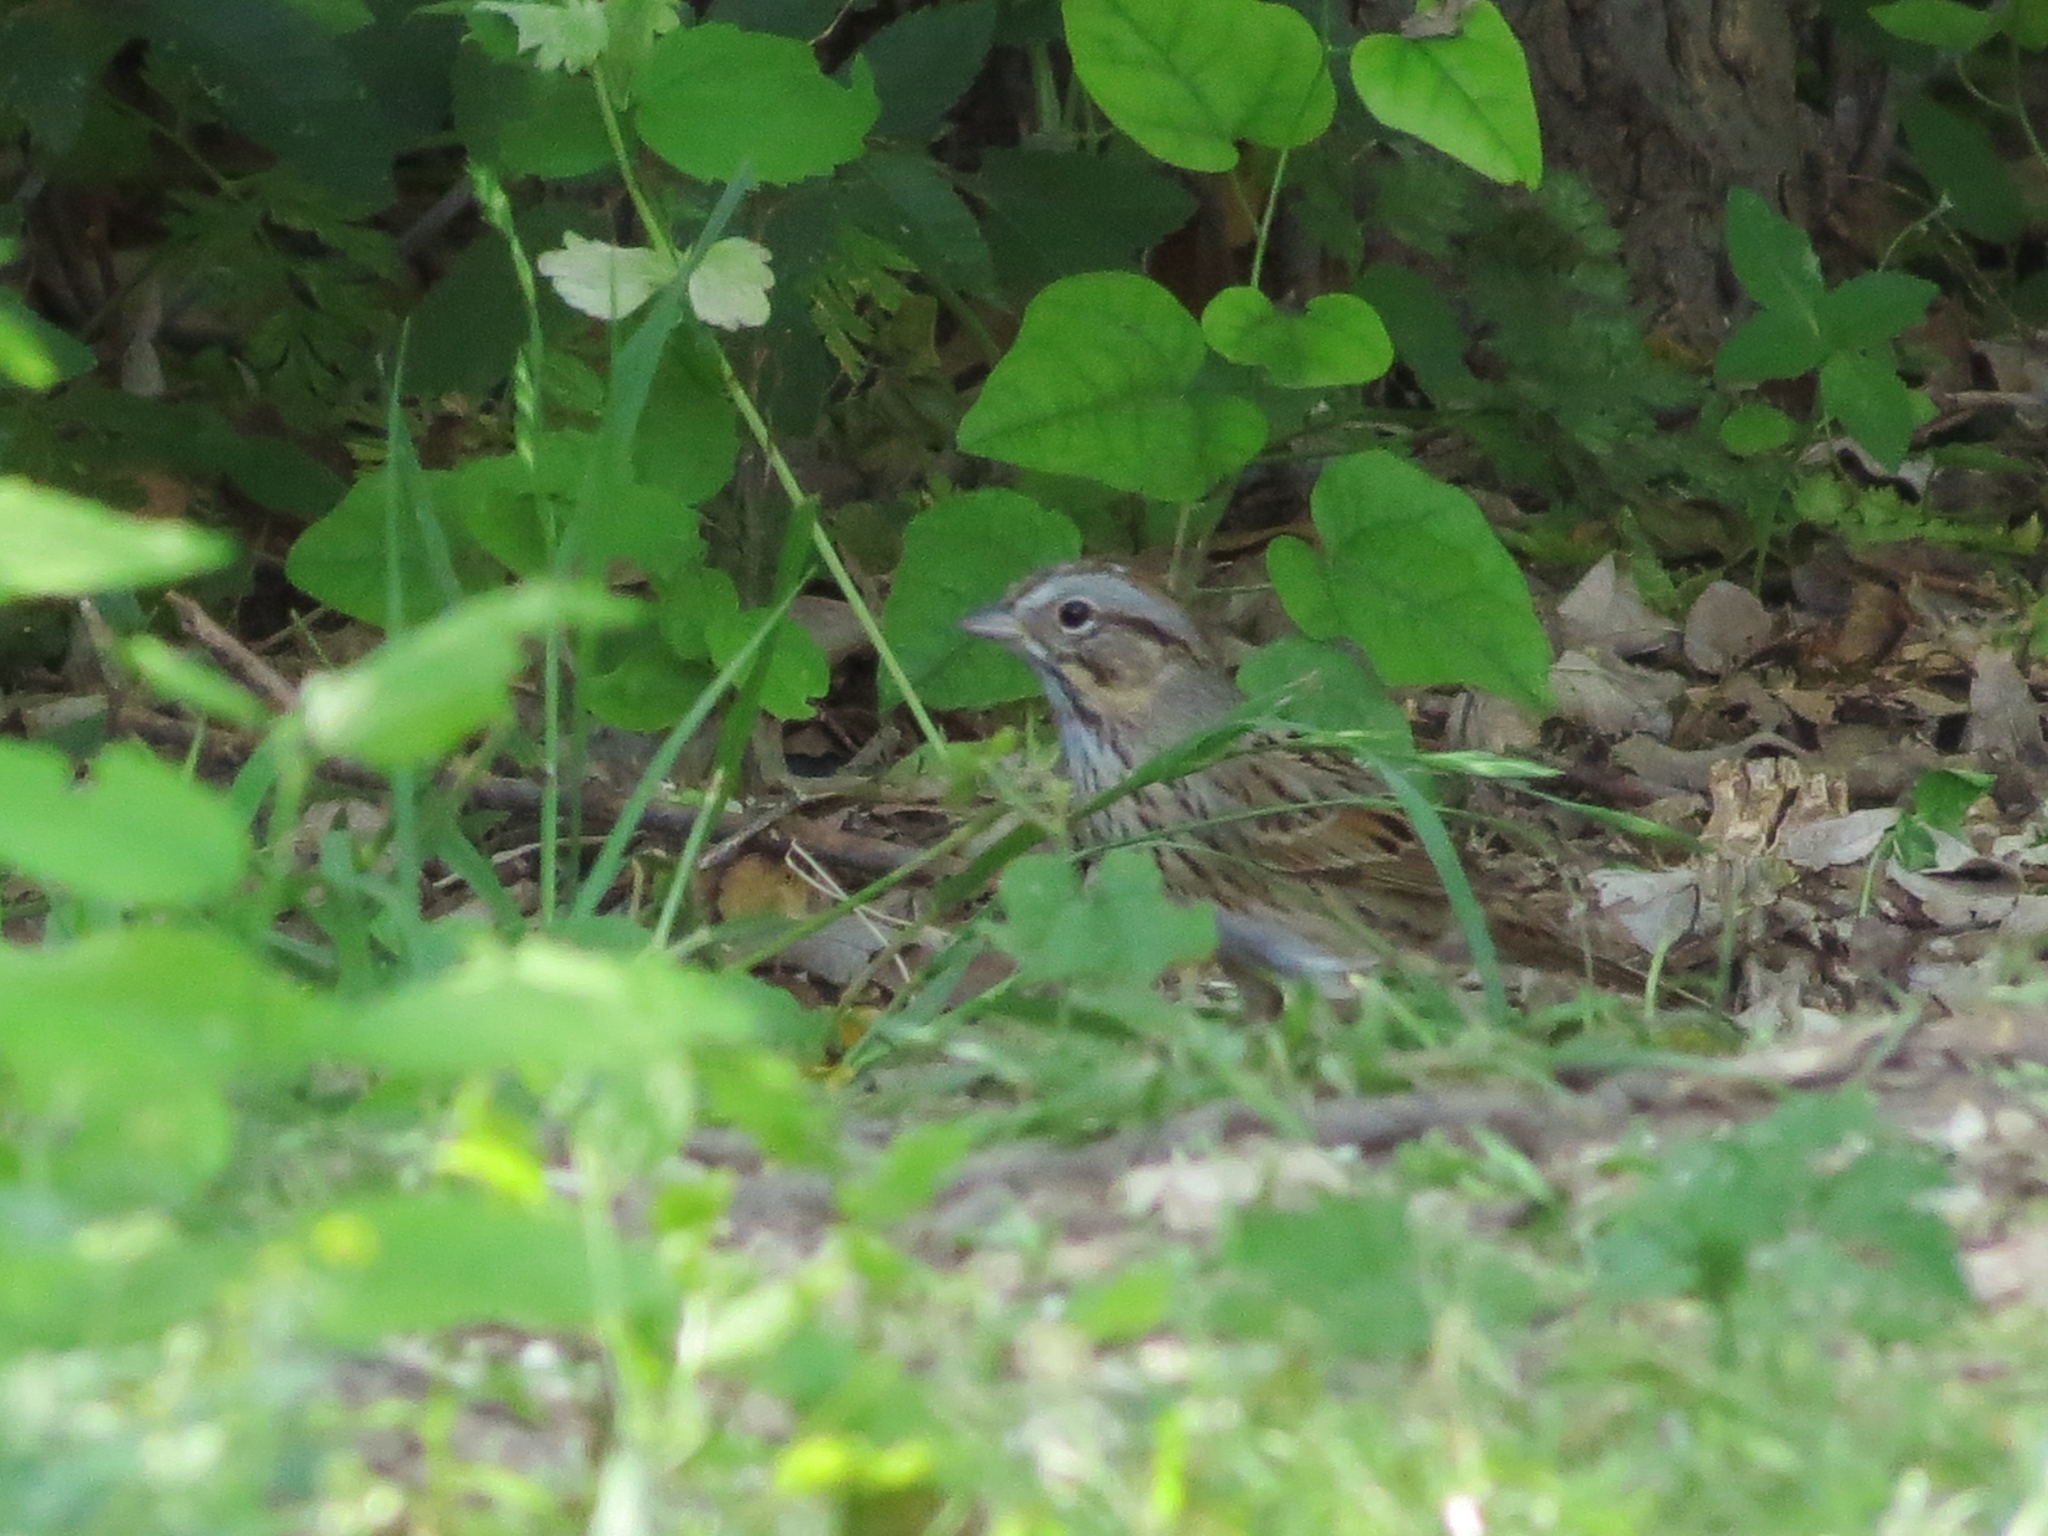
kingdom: Animalia
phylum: Chordata
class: Aves
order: Passeriformes
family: Passerellidae
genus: Melospiza
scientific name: Melospiza lincolnii
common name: Lincoln's sparrow
